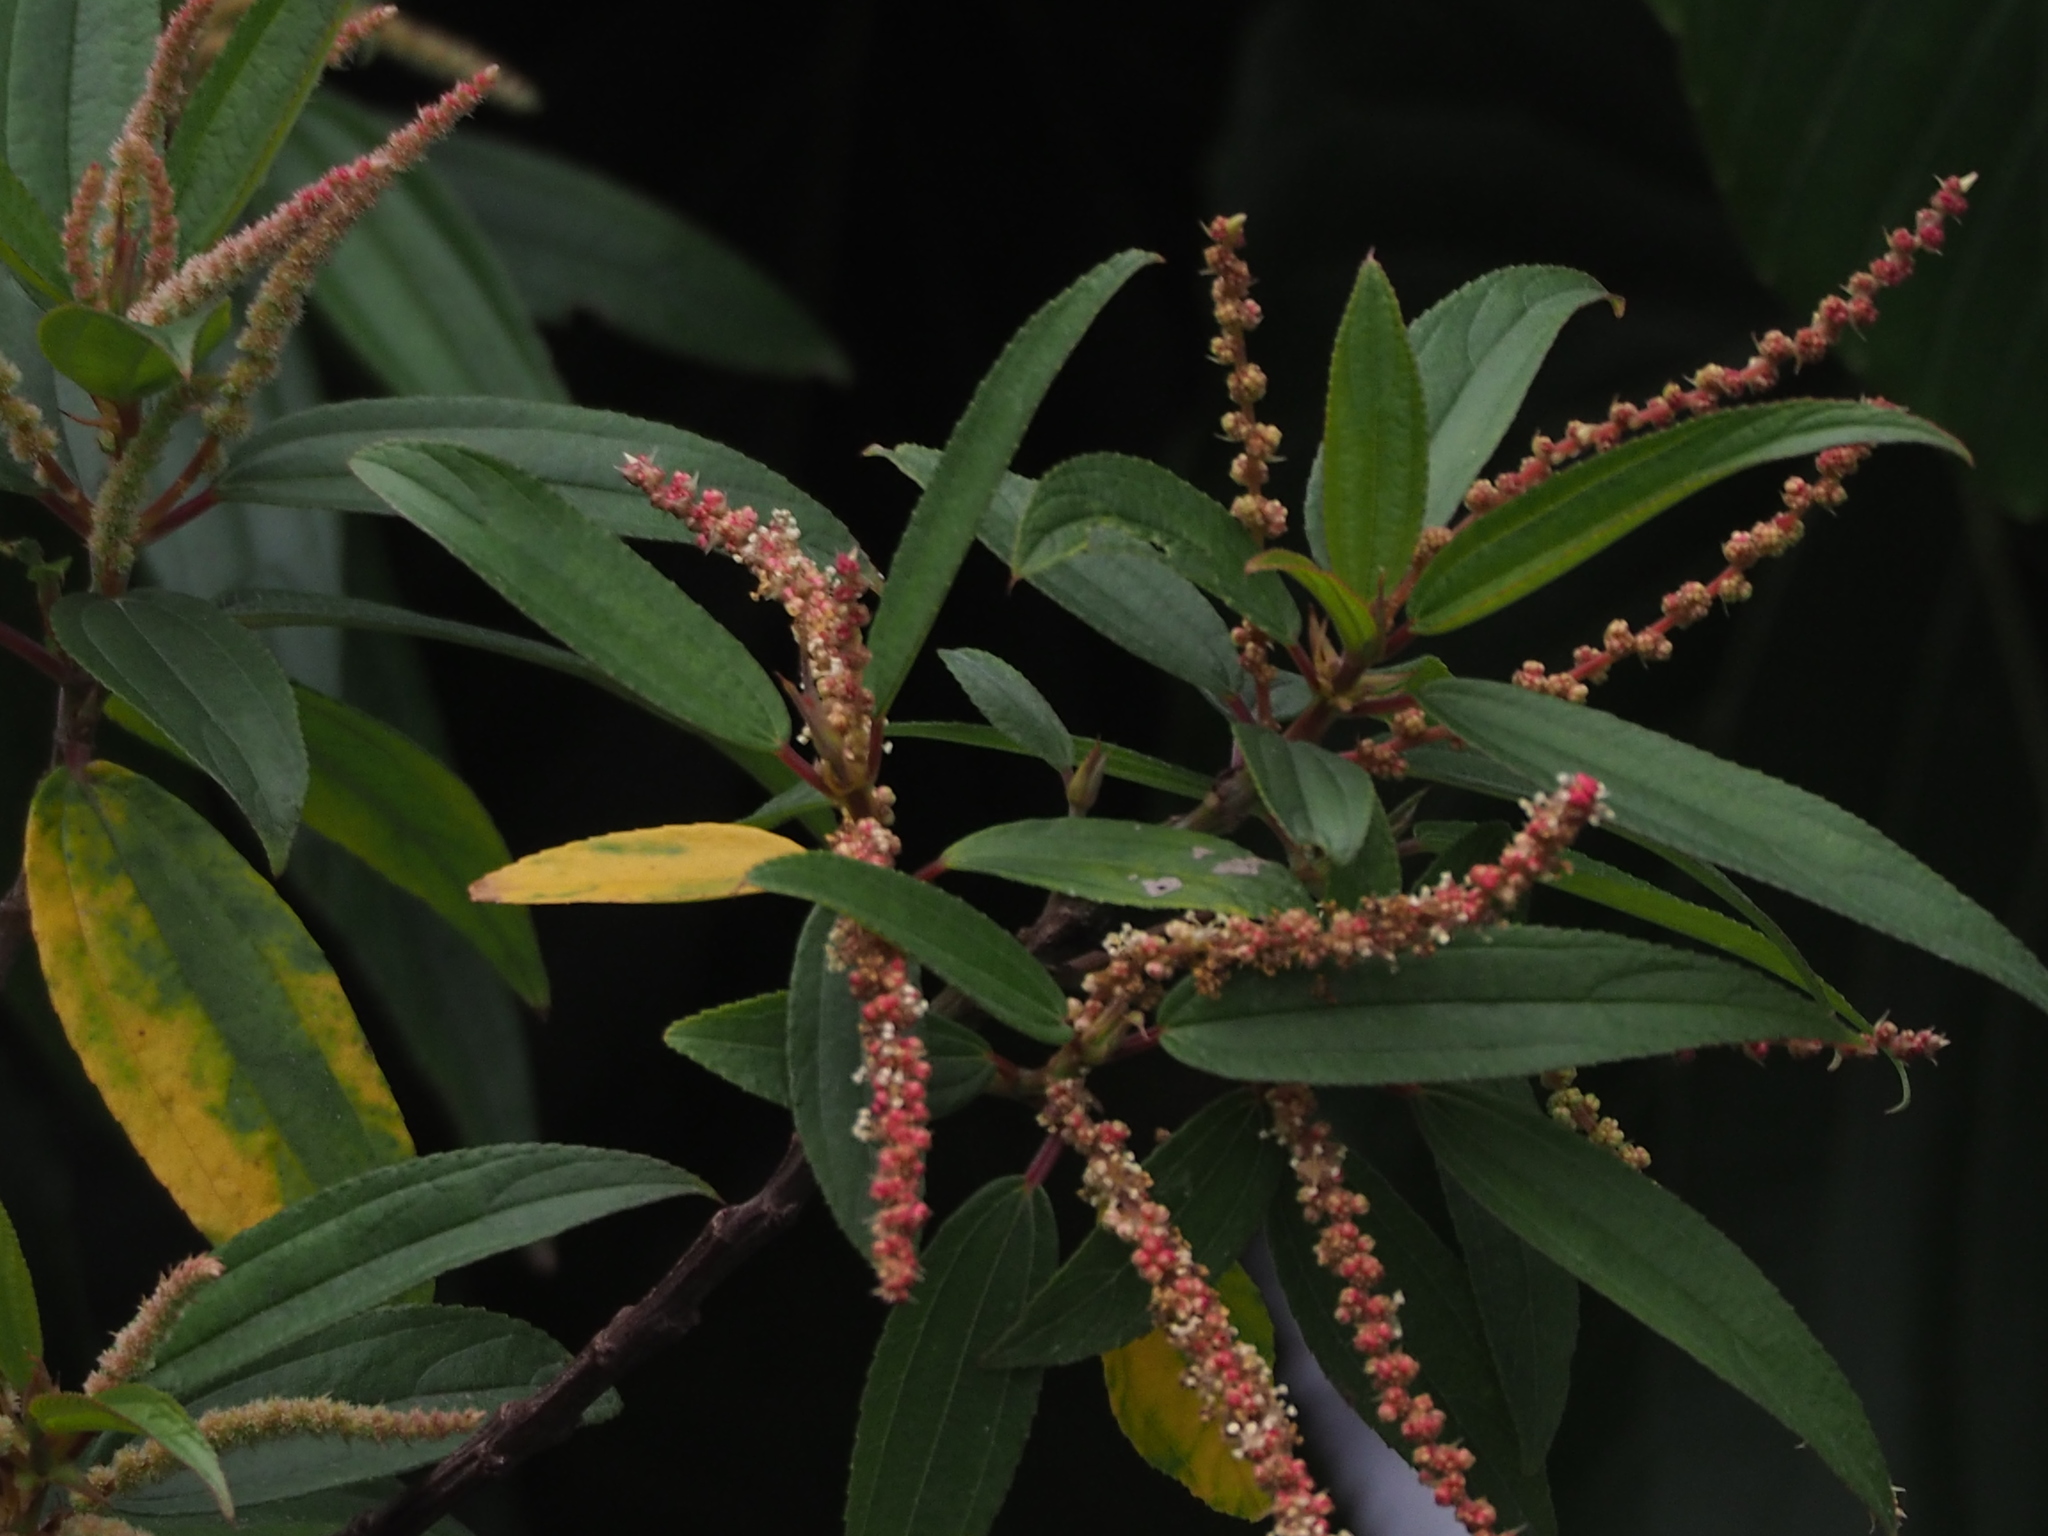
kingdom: Plantae
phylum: Tracheophyta
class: Magnoliopsida
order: Rosales
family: Urticaceae
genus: Boehmeria
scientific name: Boehmeria densiflora
